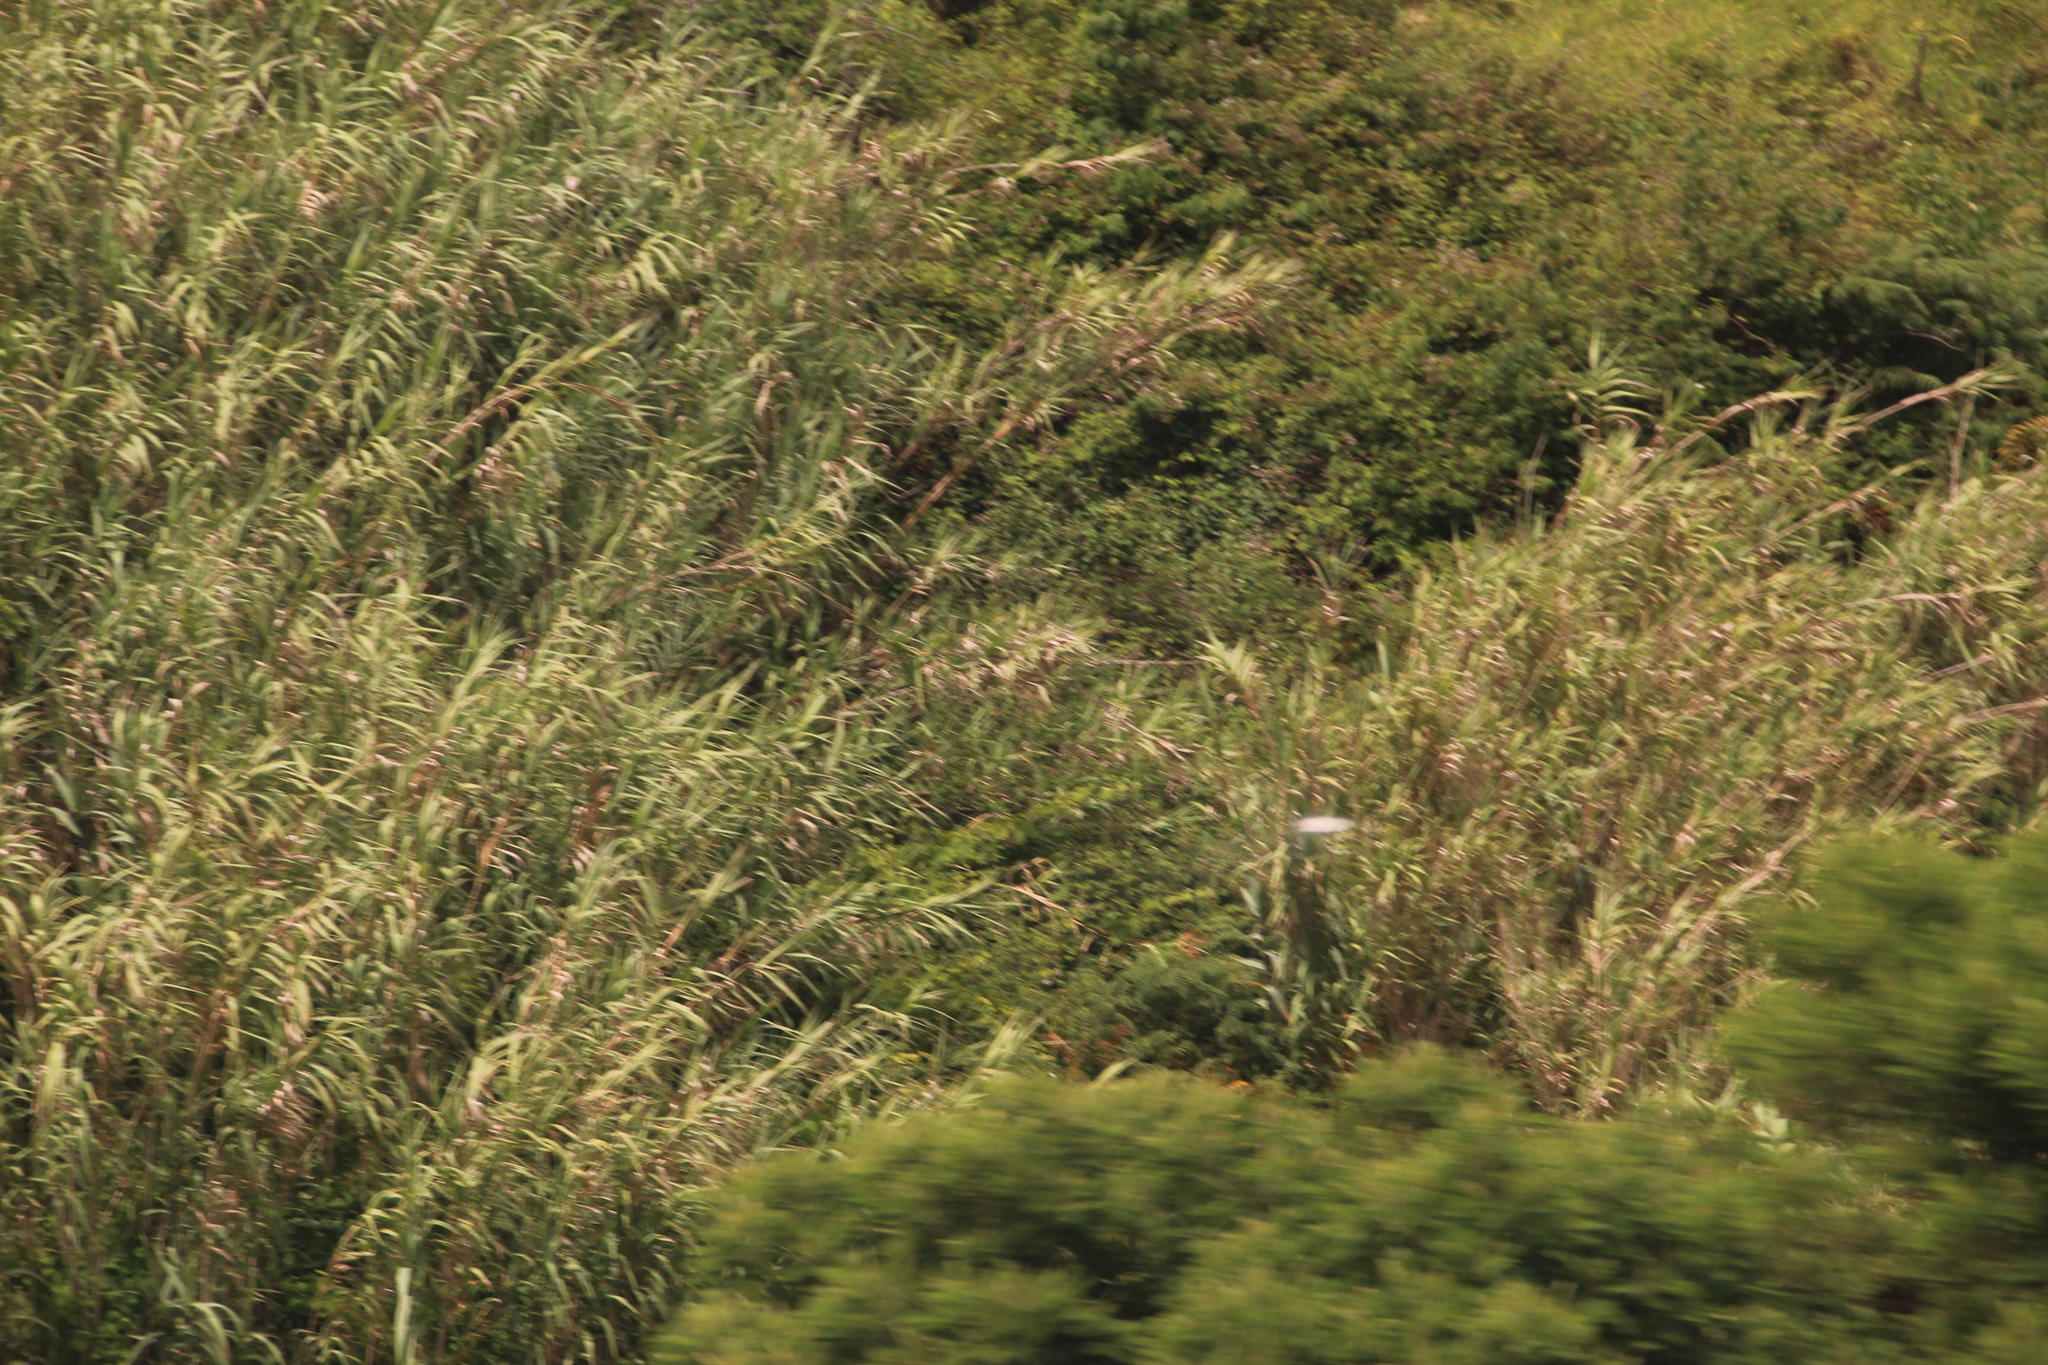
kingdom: Plantae
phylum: Tracheophyta
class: Liliopsida
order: Poales
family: Poaceae
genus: Arundo
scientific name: Arundo donax
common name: Giant reed
